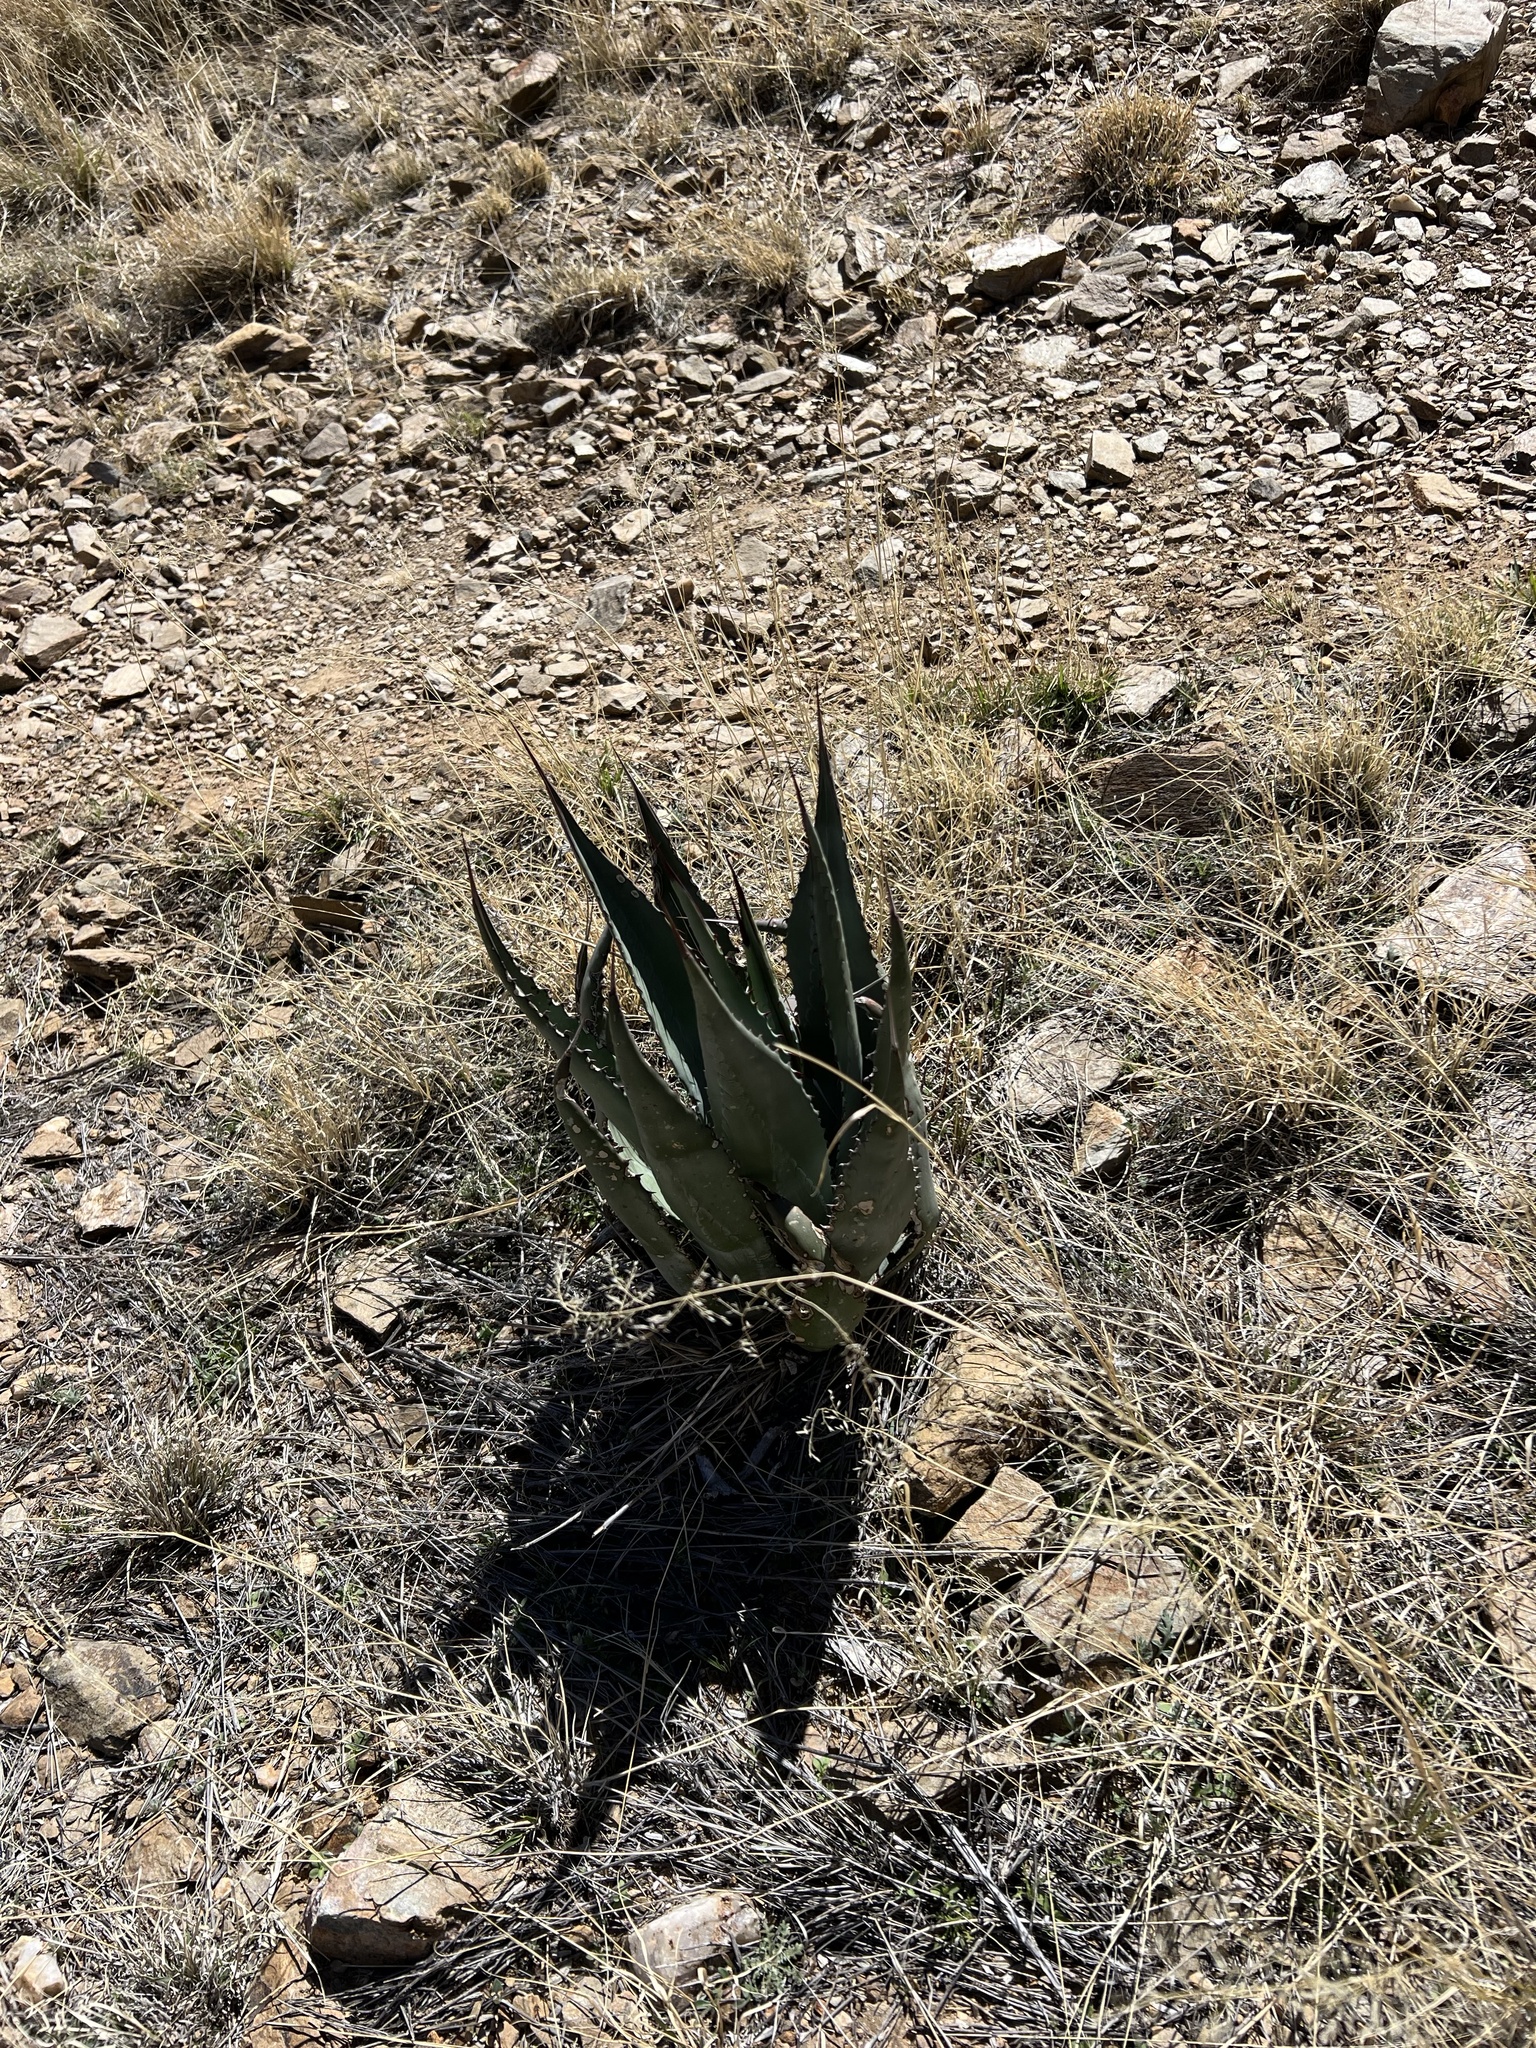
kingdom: Plantae
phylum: Tracheophyta
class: Liliopsida
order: Asparagales
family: Asparagaceae
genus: Agave
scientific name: Agave palmeri
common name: Palmer agave
